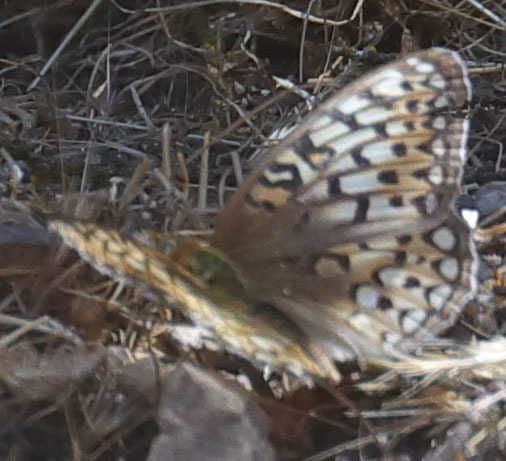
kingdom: Animalia
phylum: Arthropoda
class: Insecta
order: Lepidoptera
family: Nymphalidae
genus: Speyeria
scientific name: Speyeria callippe
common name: Callippe fritillary
